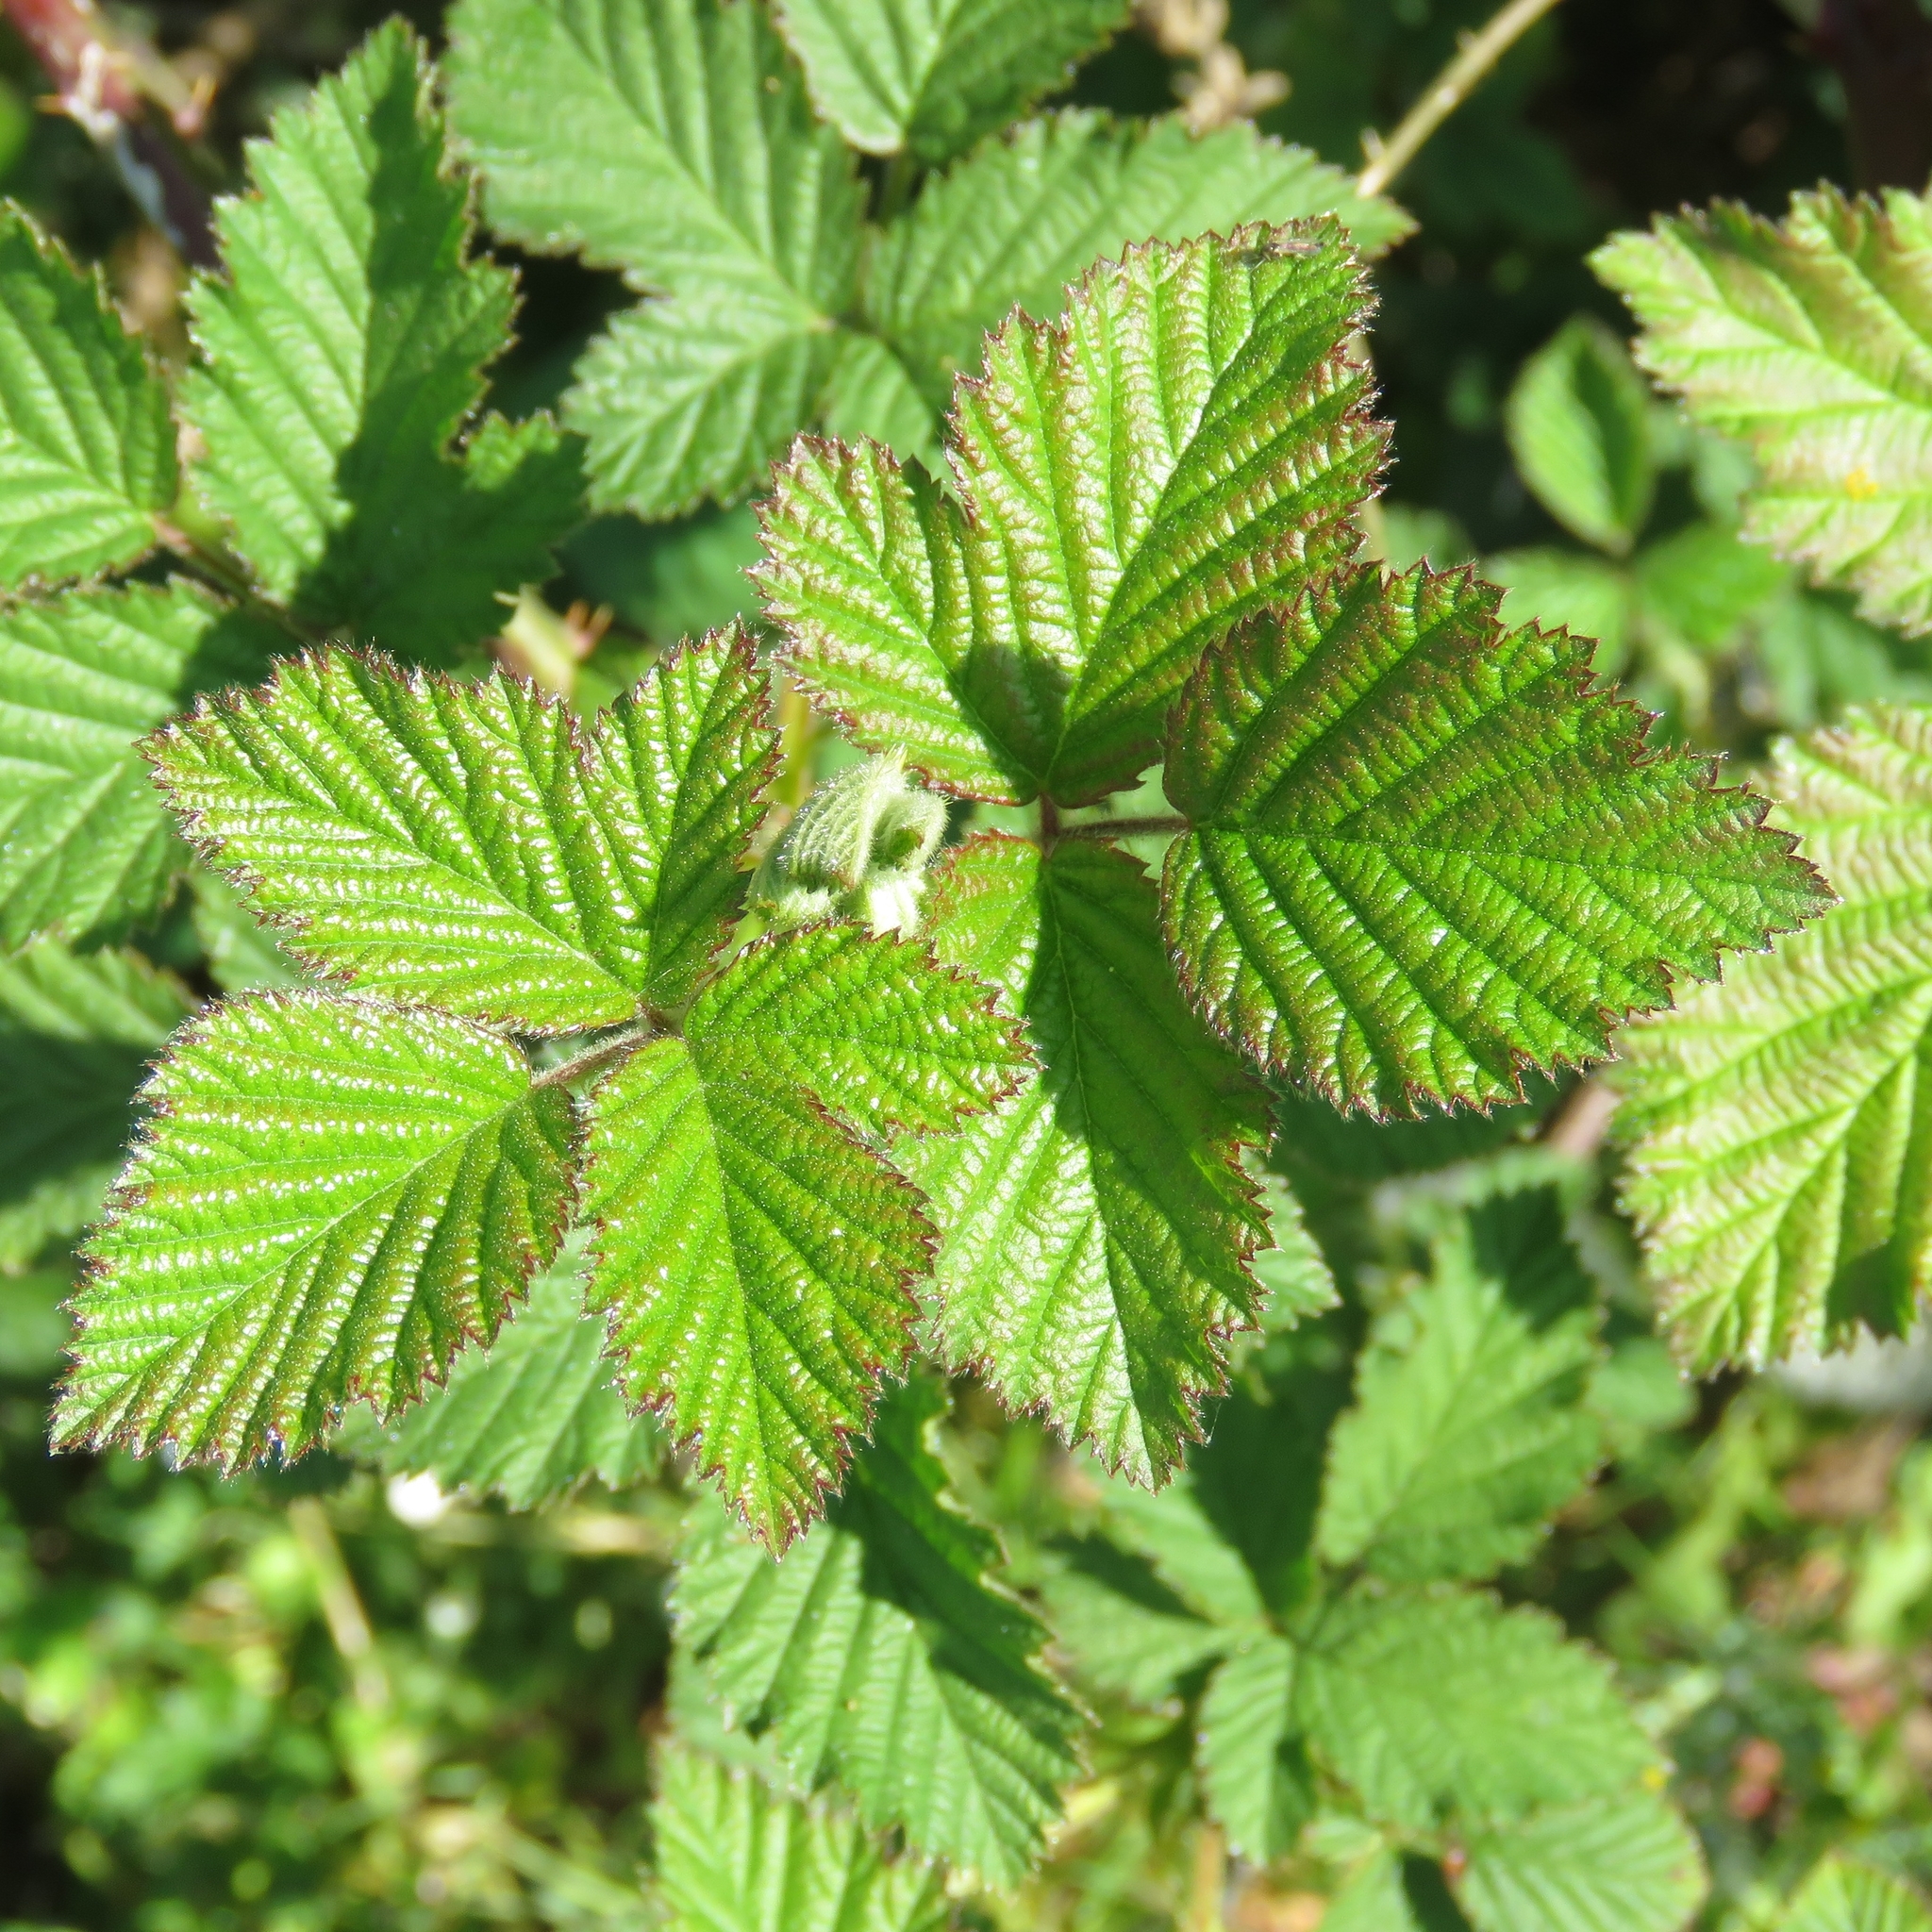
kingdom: Plantae
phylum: Tracheophyta
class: Magnoliopsida
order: Rosales
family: Rosaceae
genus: Rubus
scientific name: Rubus
